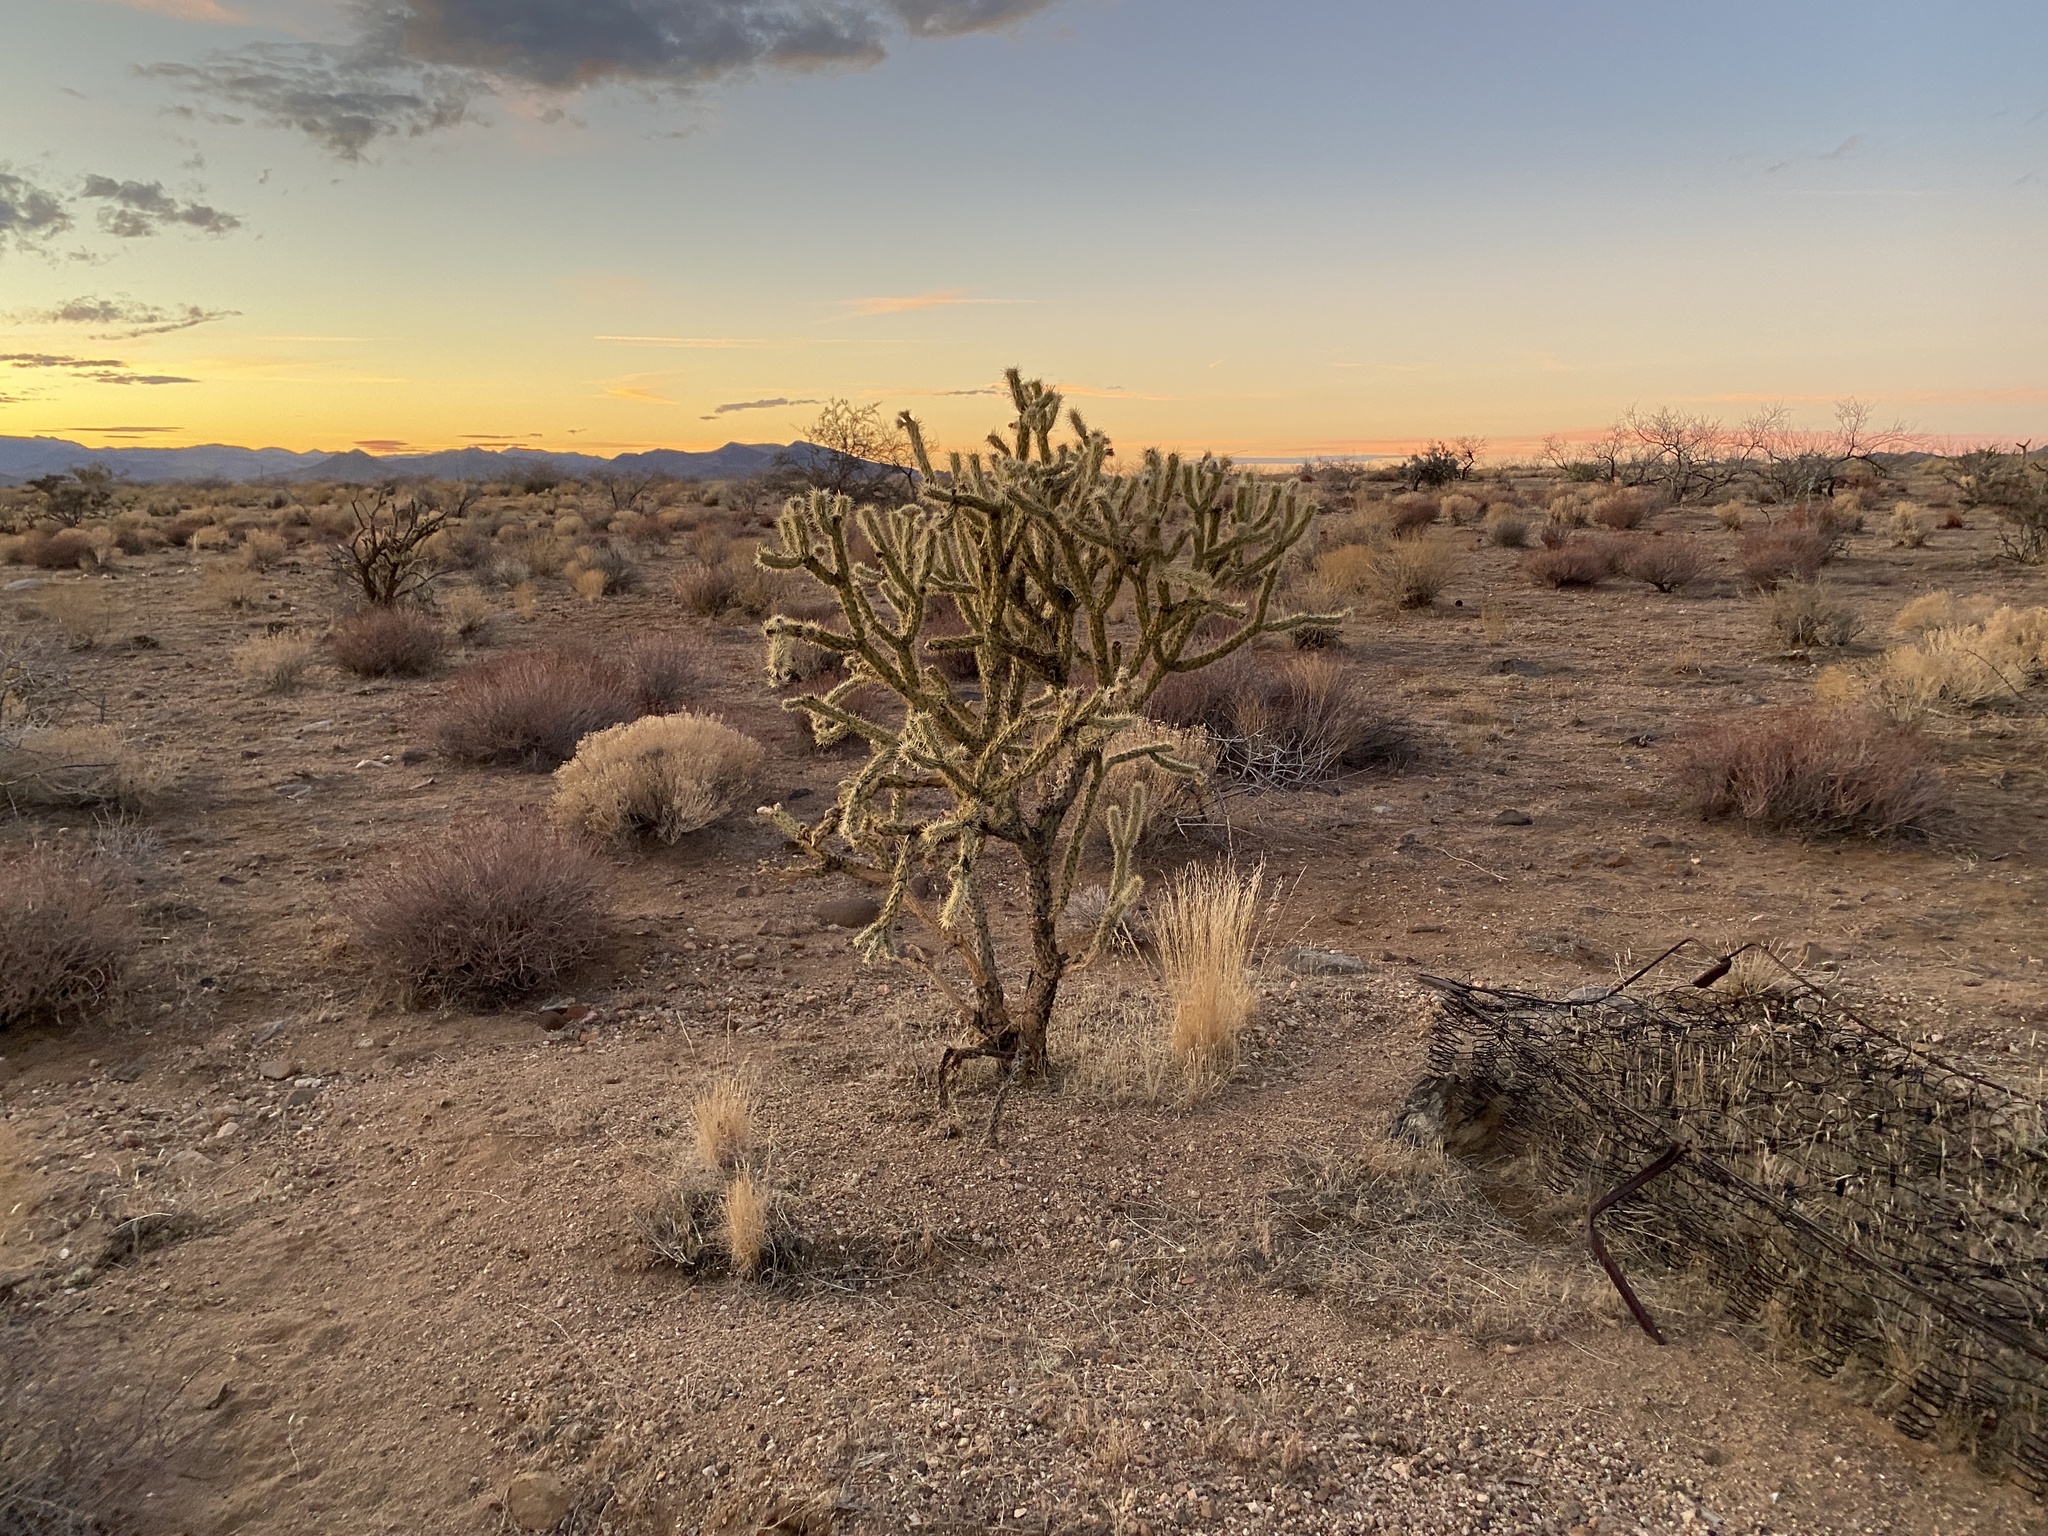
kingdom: Plantae
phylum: Tracheophyta
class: Magnoliopsida
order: Caryophyllales
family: Cactaceae
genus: Cylindropuntia
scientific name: Cylindropuntia acanthocarpa
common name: Buckhorn cholla
